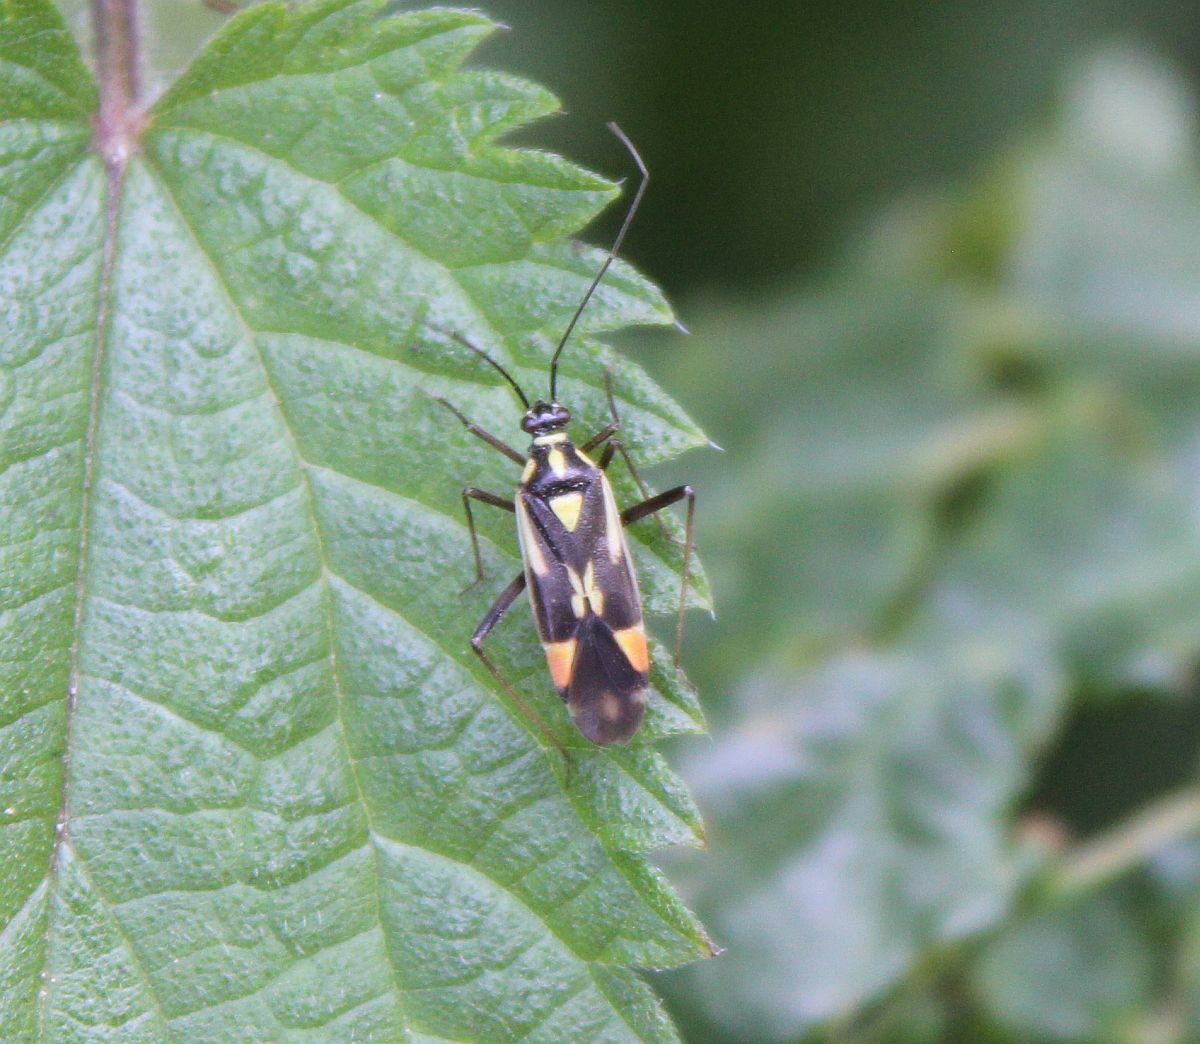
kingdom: Animalia
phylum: Arthropoda
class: Insecta
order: Hemiptera
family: Miridae
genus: Grypocoris
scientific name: Grypocoris stysi
